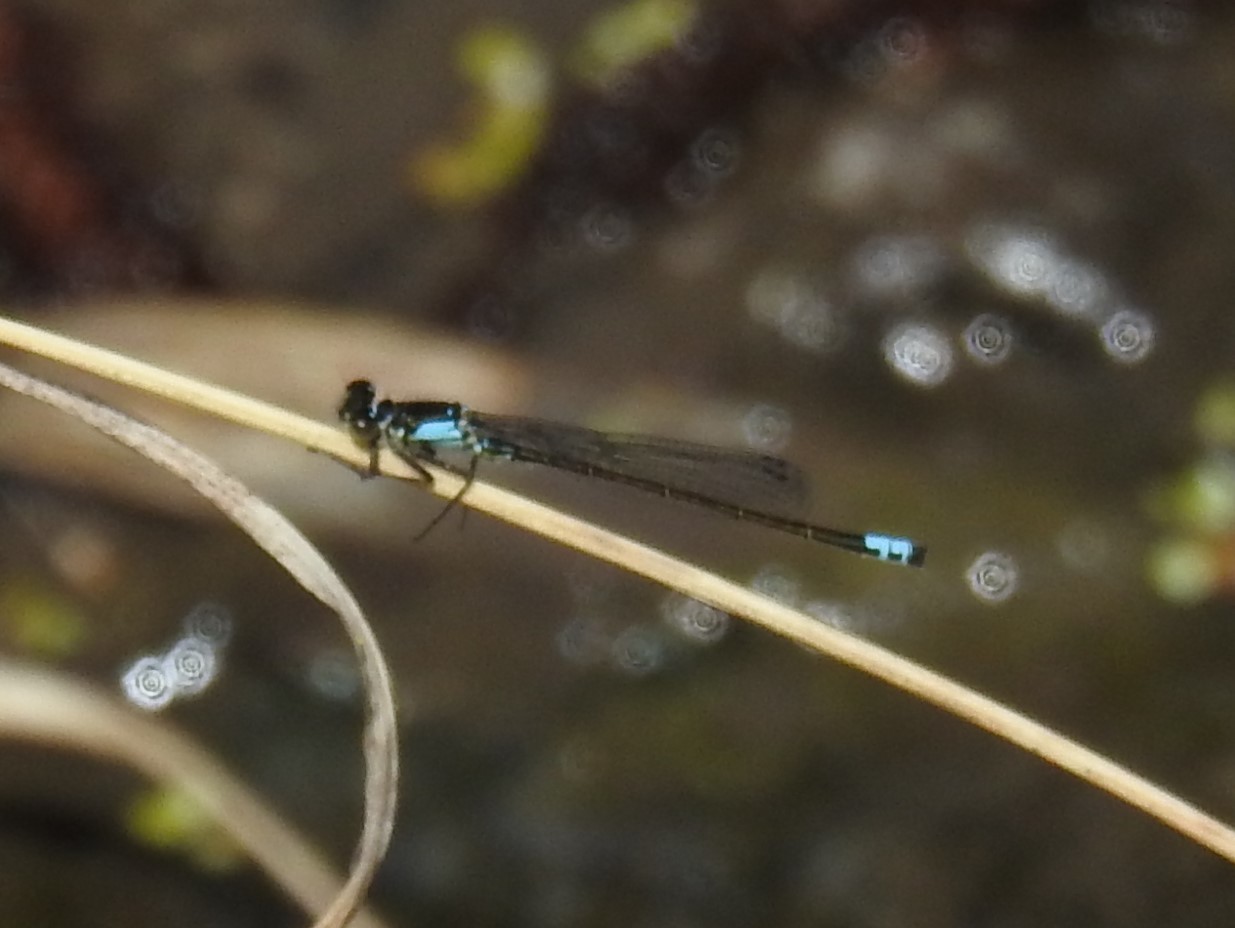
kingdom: Animalia
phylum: Arthropoda
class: Insecta
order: Odonata
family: Coenagrionidae
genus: Ischnura
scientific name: Ischnura cervula
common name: Pacific forktail
